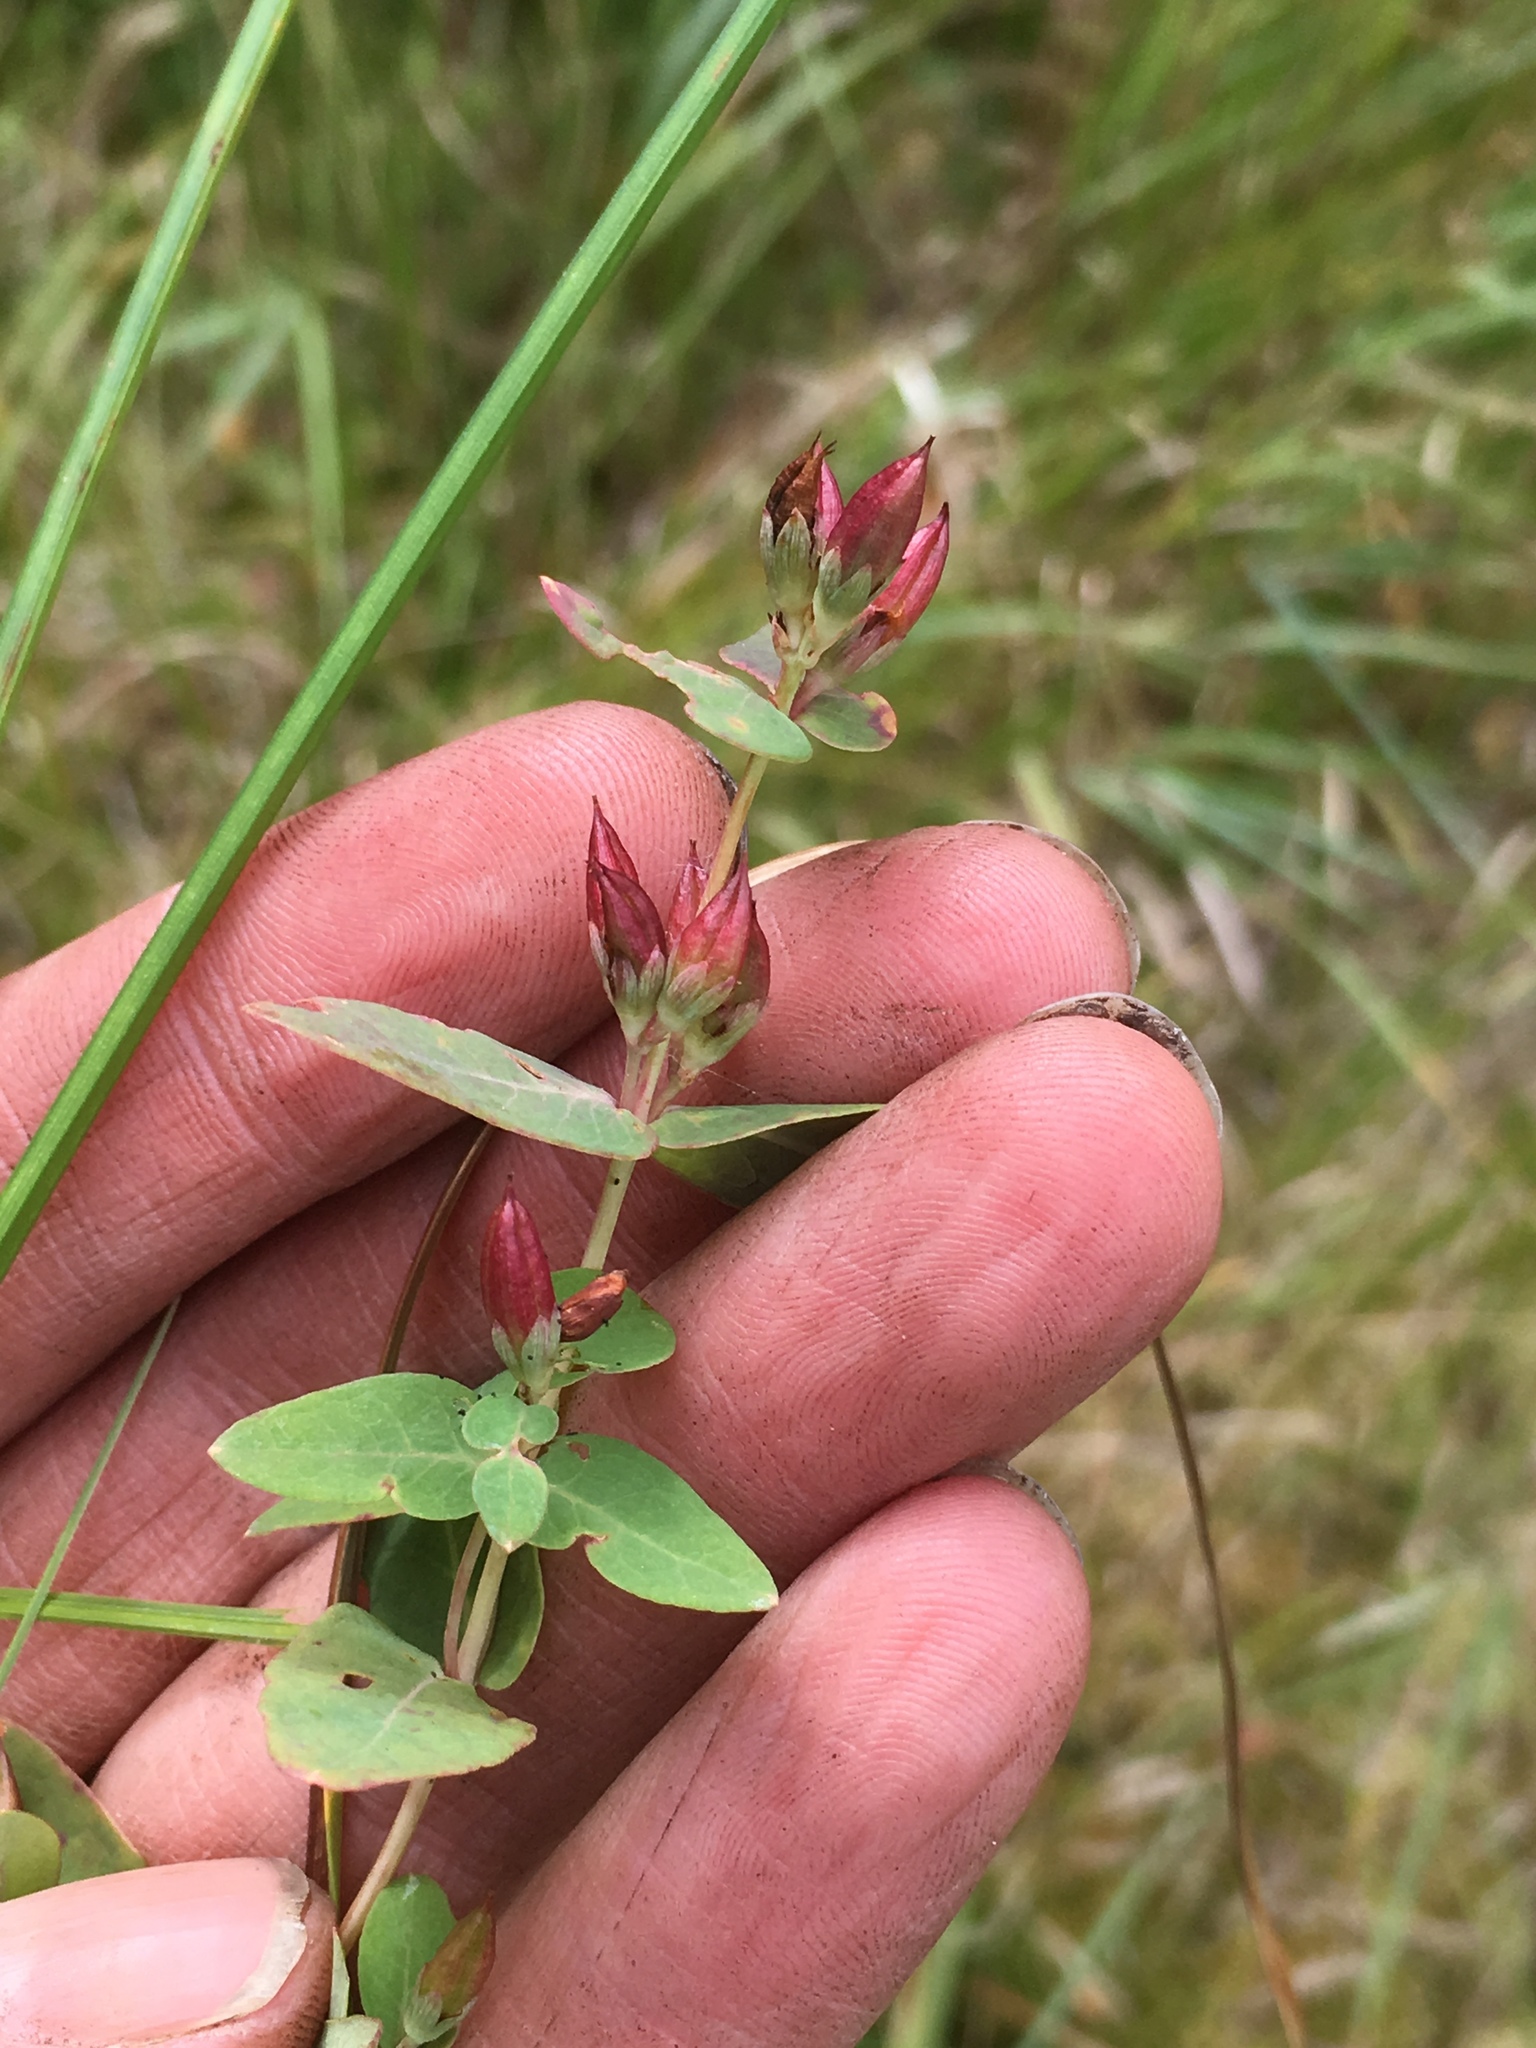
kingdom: Plantae
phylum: Tracheophyta
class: Magnoliopsida
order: Malpighiales
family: Hypericaceae
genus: Triadenum
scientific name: Triadenum fraseri
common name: Fraser's marsh st. johnswort
